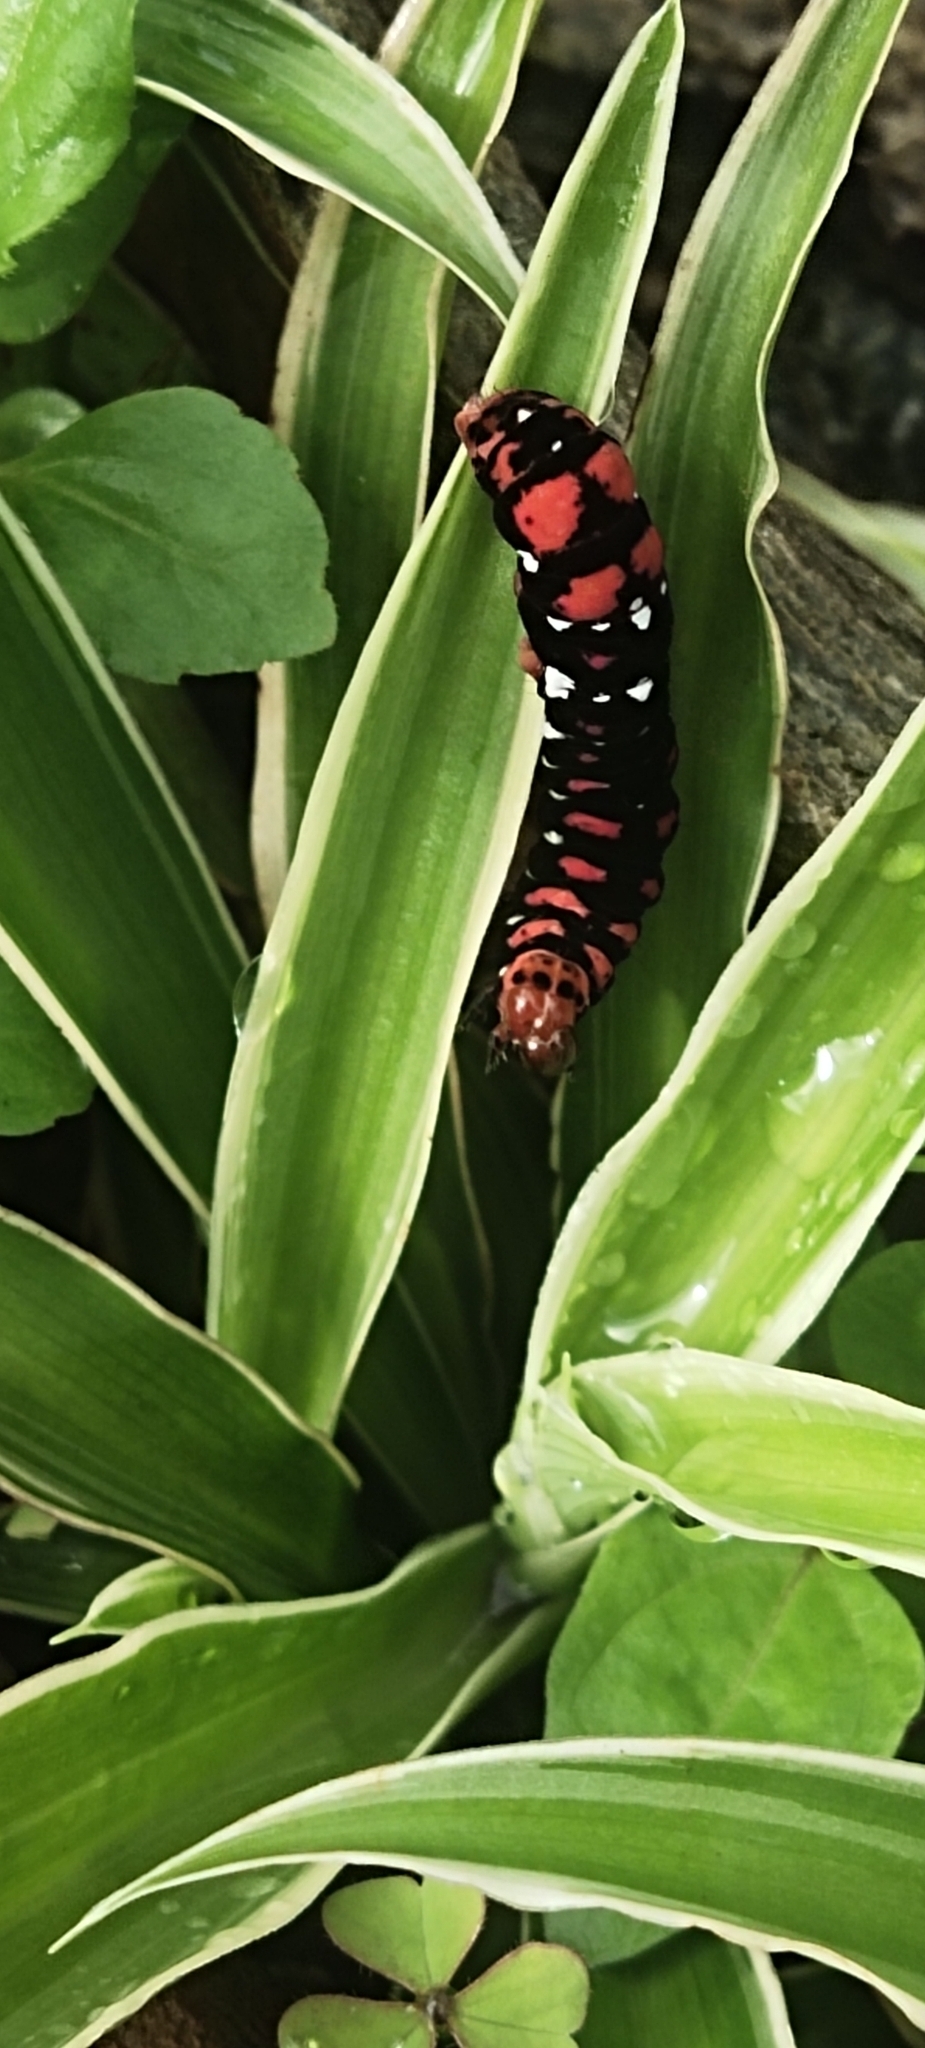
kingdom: Animalia
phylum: Arthropoda
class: Insecta
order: Lepidoptera
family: Noctuidae
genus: Polytela
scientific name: Polytela gloriosae
